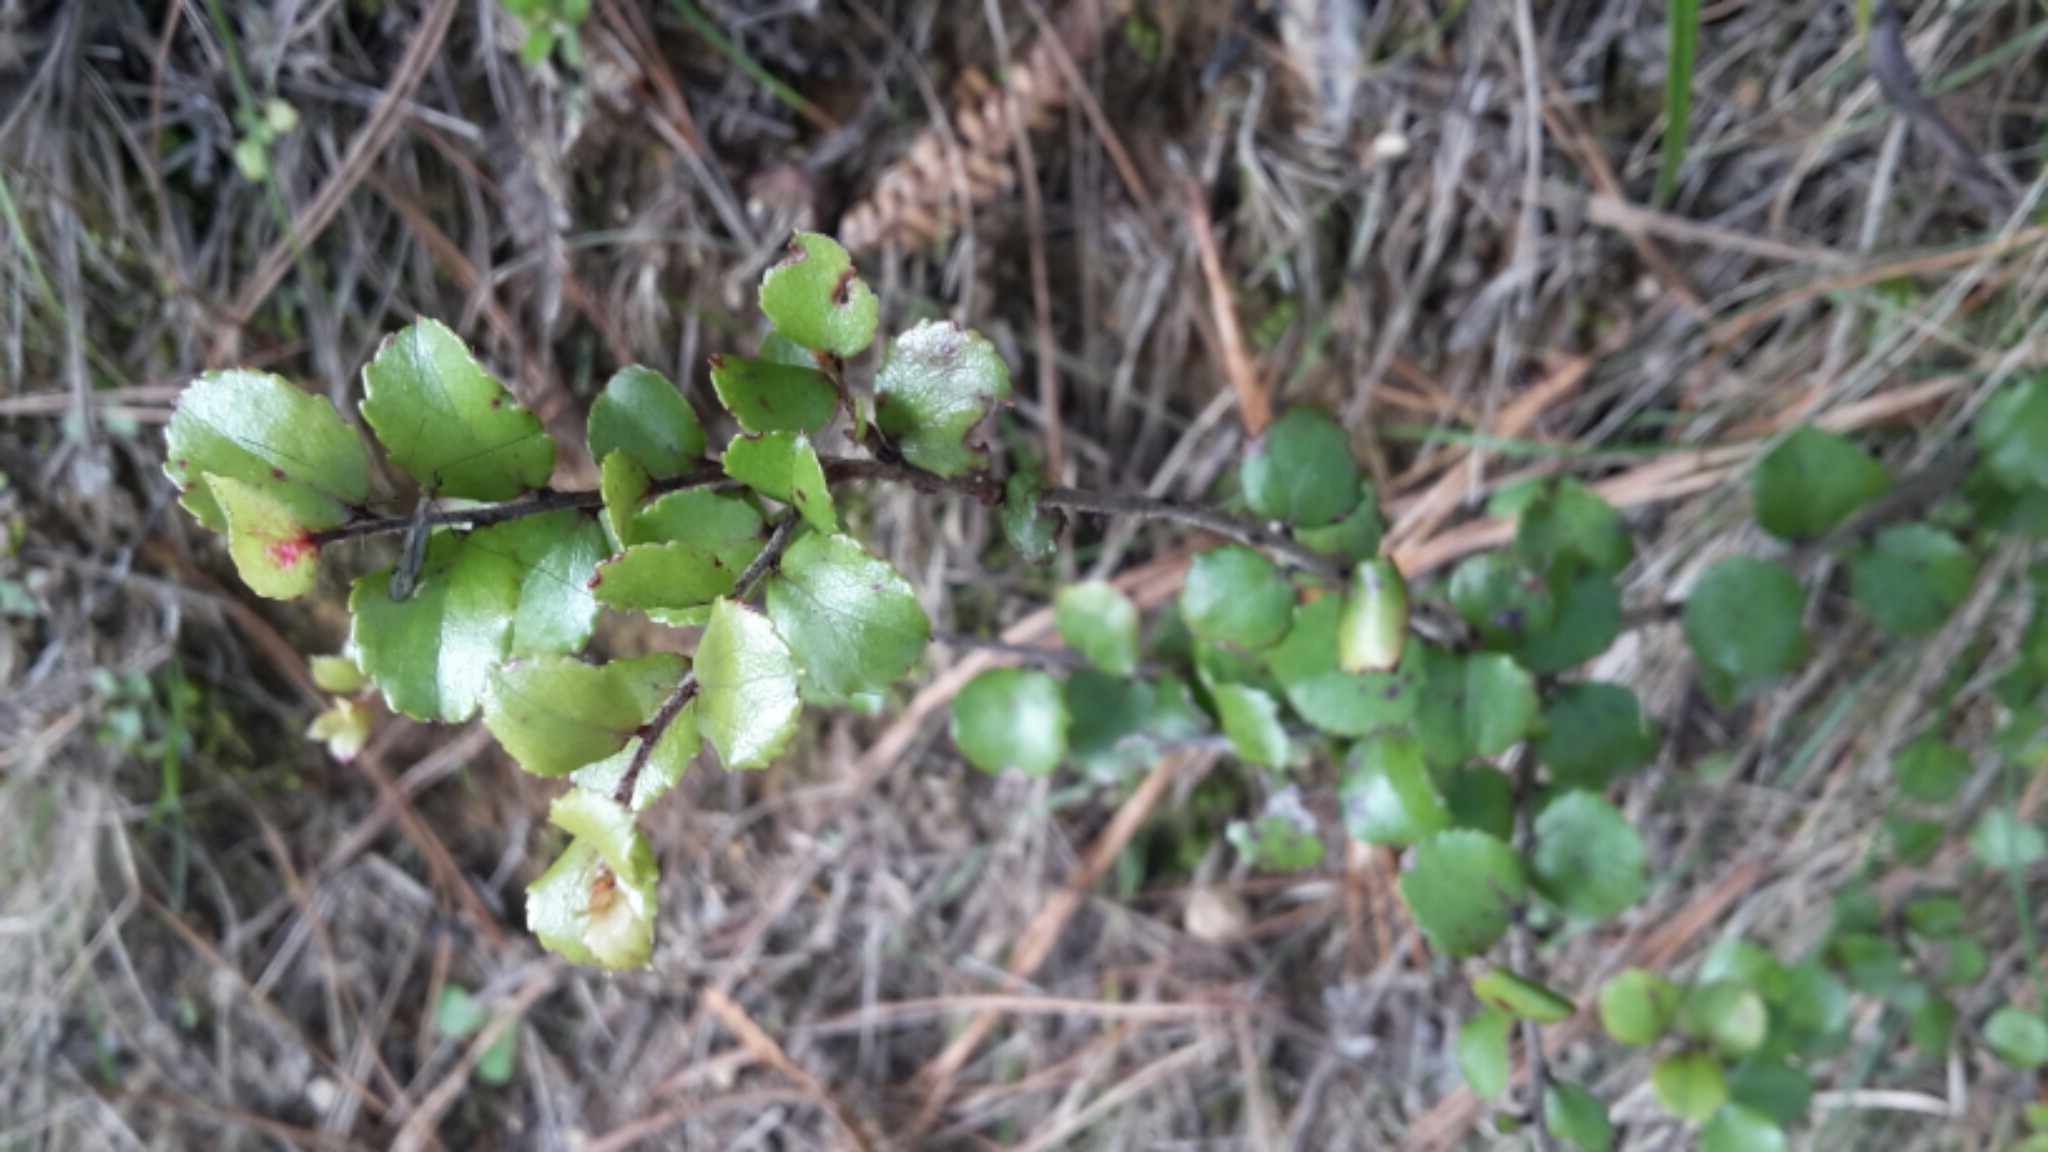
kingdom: Plantae
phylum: Tracheophyta
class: Magnoliopsida
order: Ericales
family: Ericaceae
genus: Gaultheria
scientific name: Gaultheria antipoda
